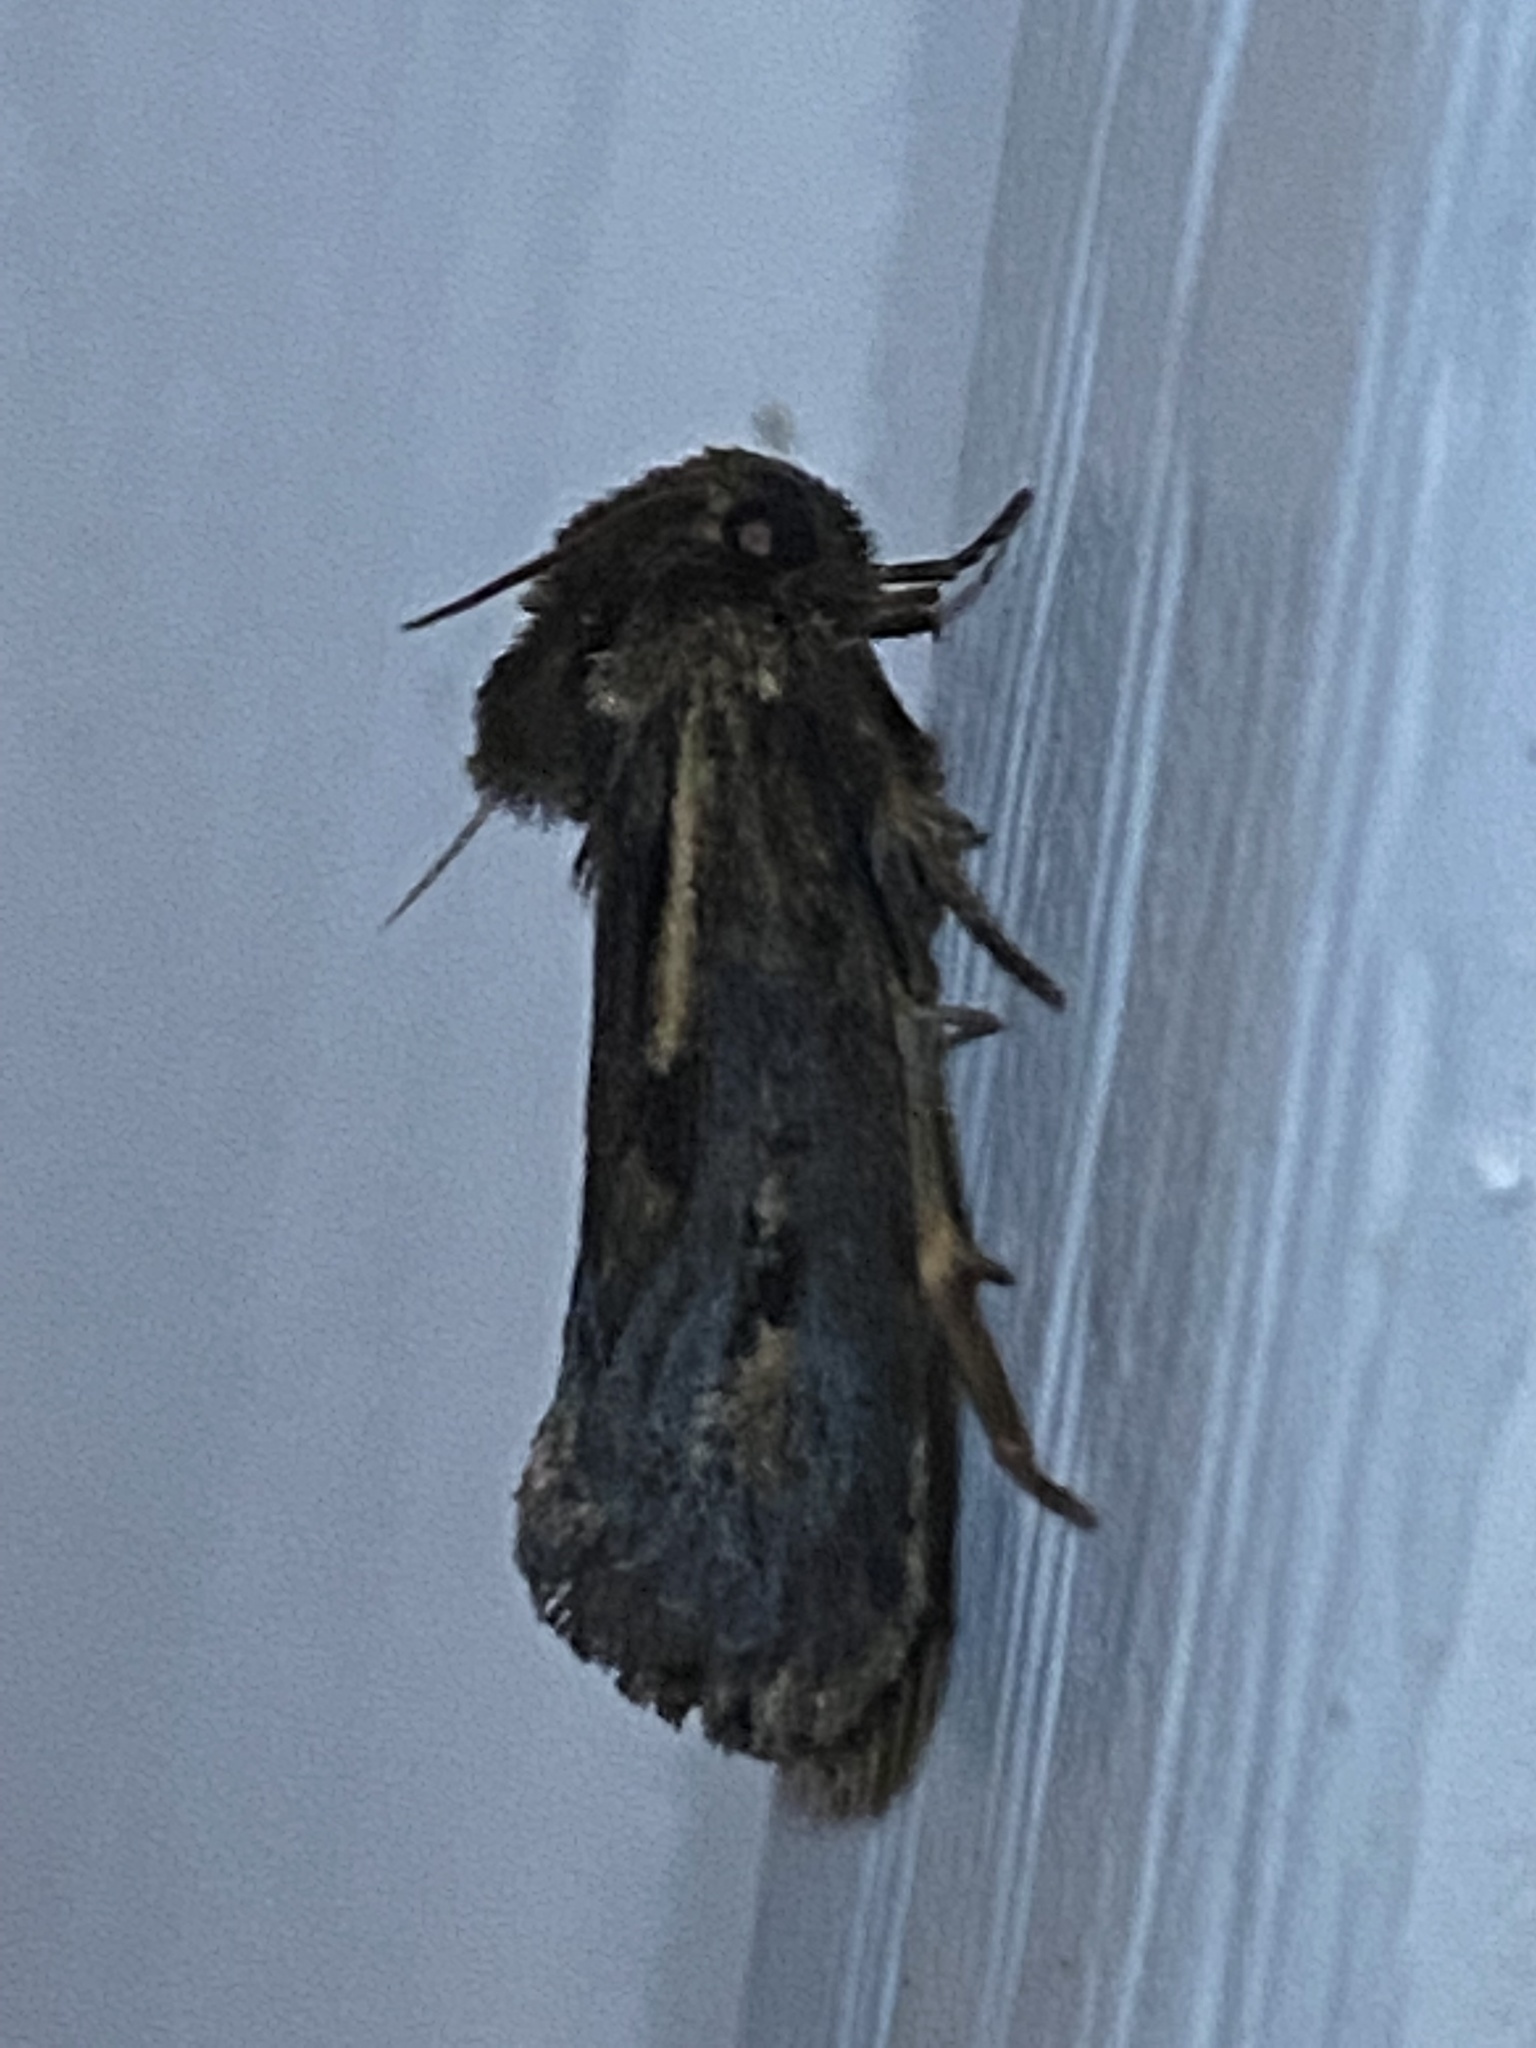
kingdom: Animalia
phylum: Arthropoda
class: Insecta
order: Lepidoptera
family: Tineidae
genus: Acrolophus
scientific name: Acrolophus popeanella
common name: Clemens' grass tubeworm moth
